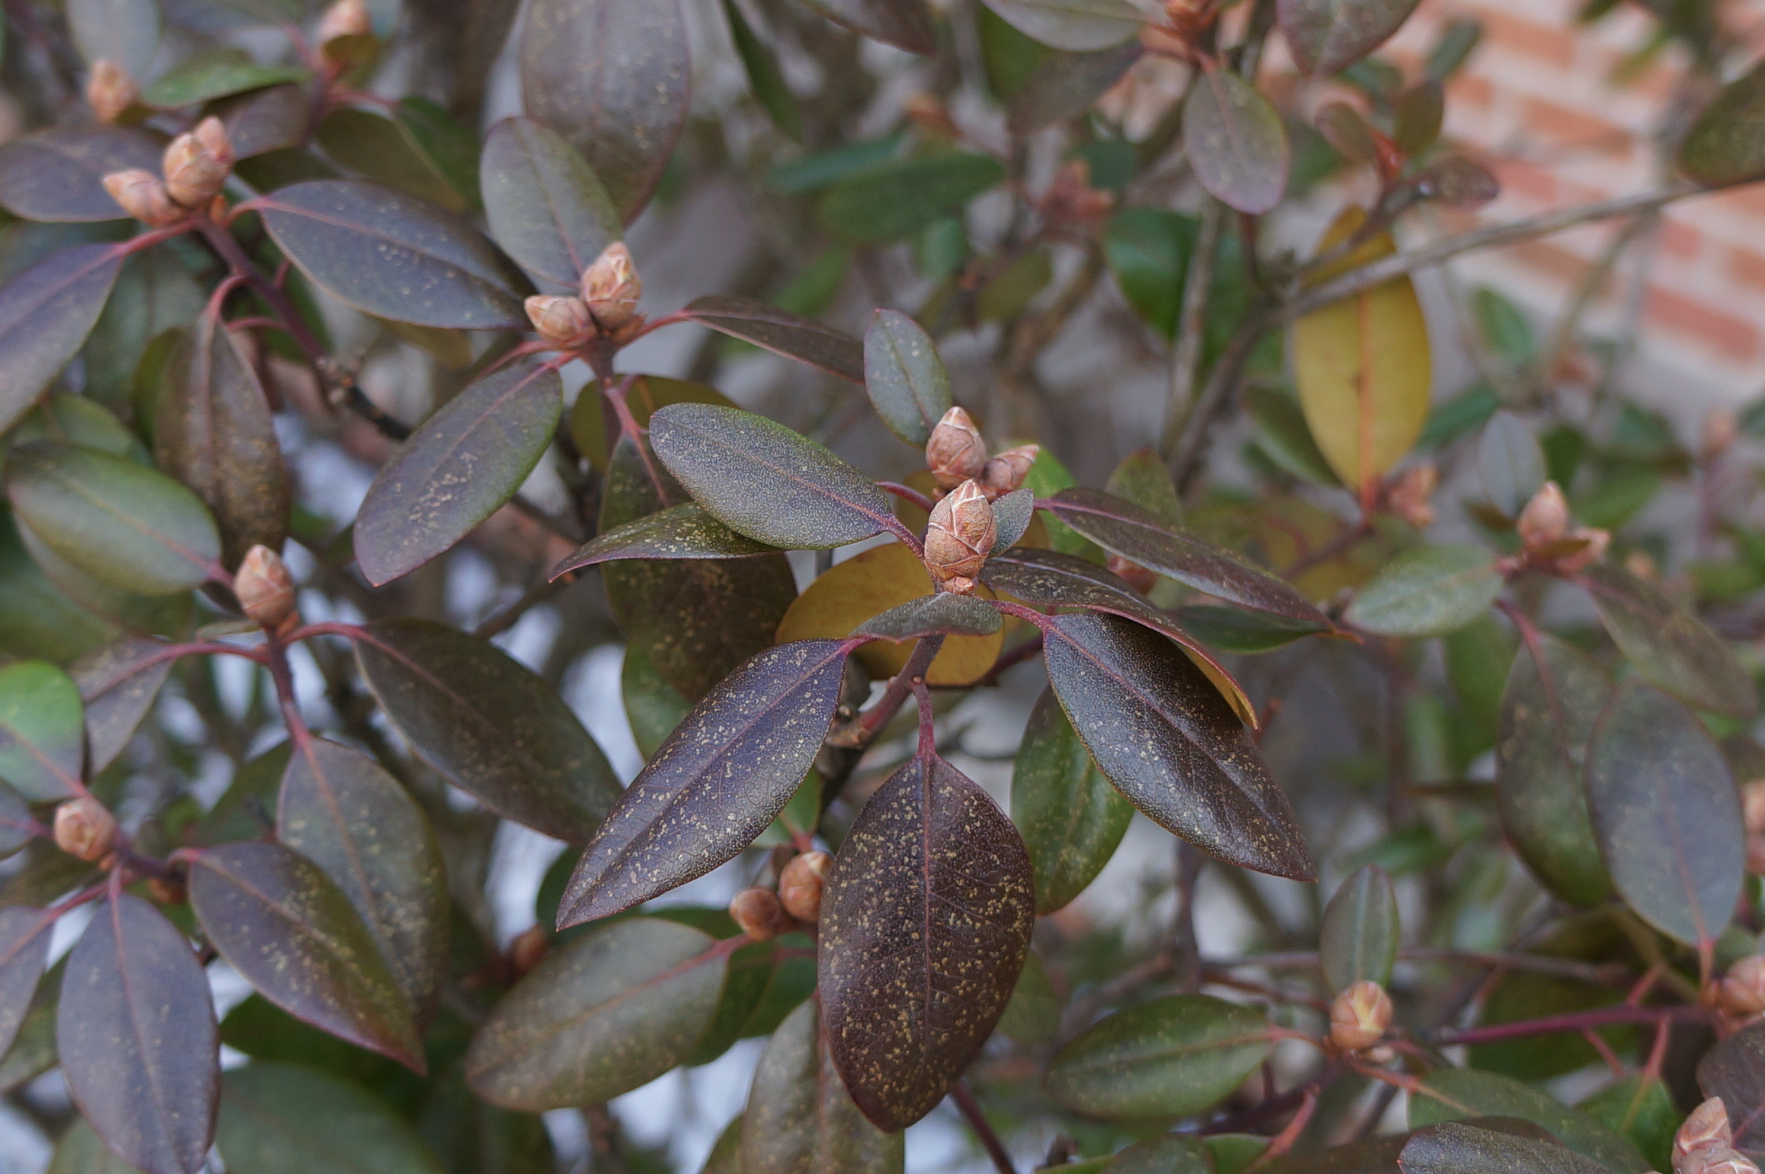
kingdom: Plantae
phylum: Tracheophyta
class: Magnoliopsida
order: Ericales
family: Ericaceae
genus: Rhododendron
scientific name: Rhododendron maximum
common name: Great rhododendron
